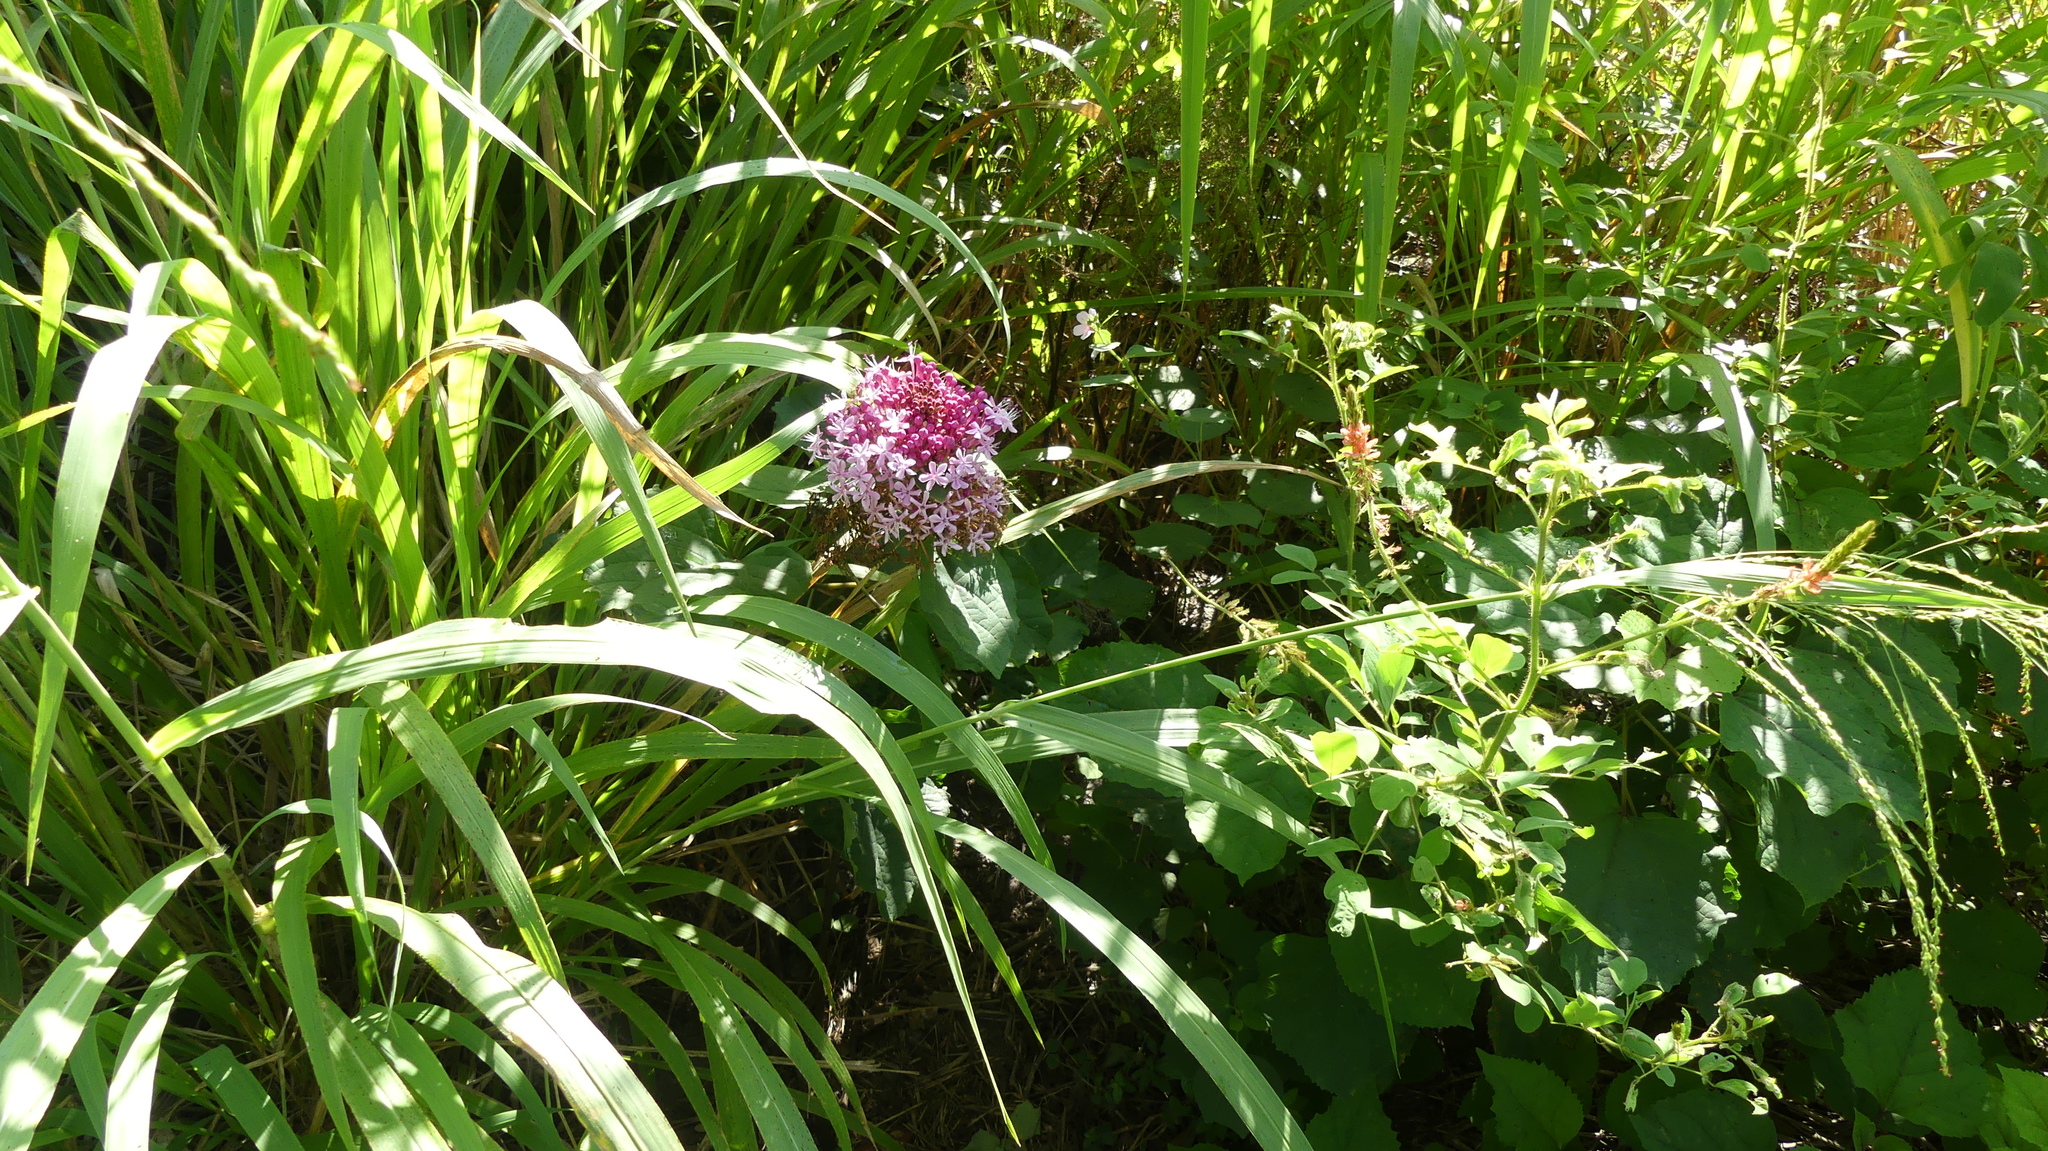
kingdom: Plantae
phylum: Tracheophyta
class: Magnoliopsida
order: Lamiales
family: Lamiaceae
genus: Clerodendrum
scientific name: Clerodendrum bungei
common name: Rose glorybower
